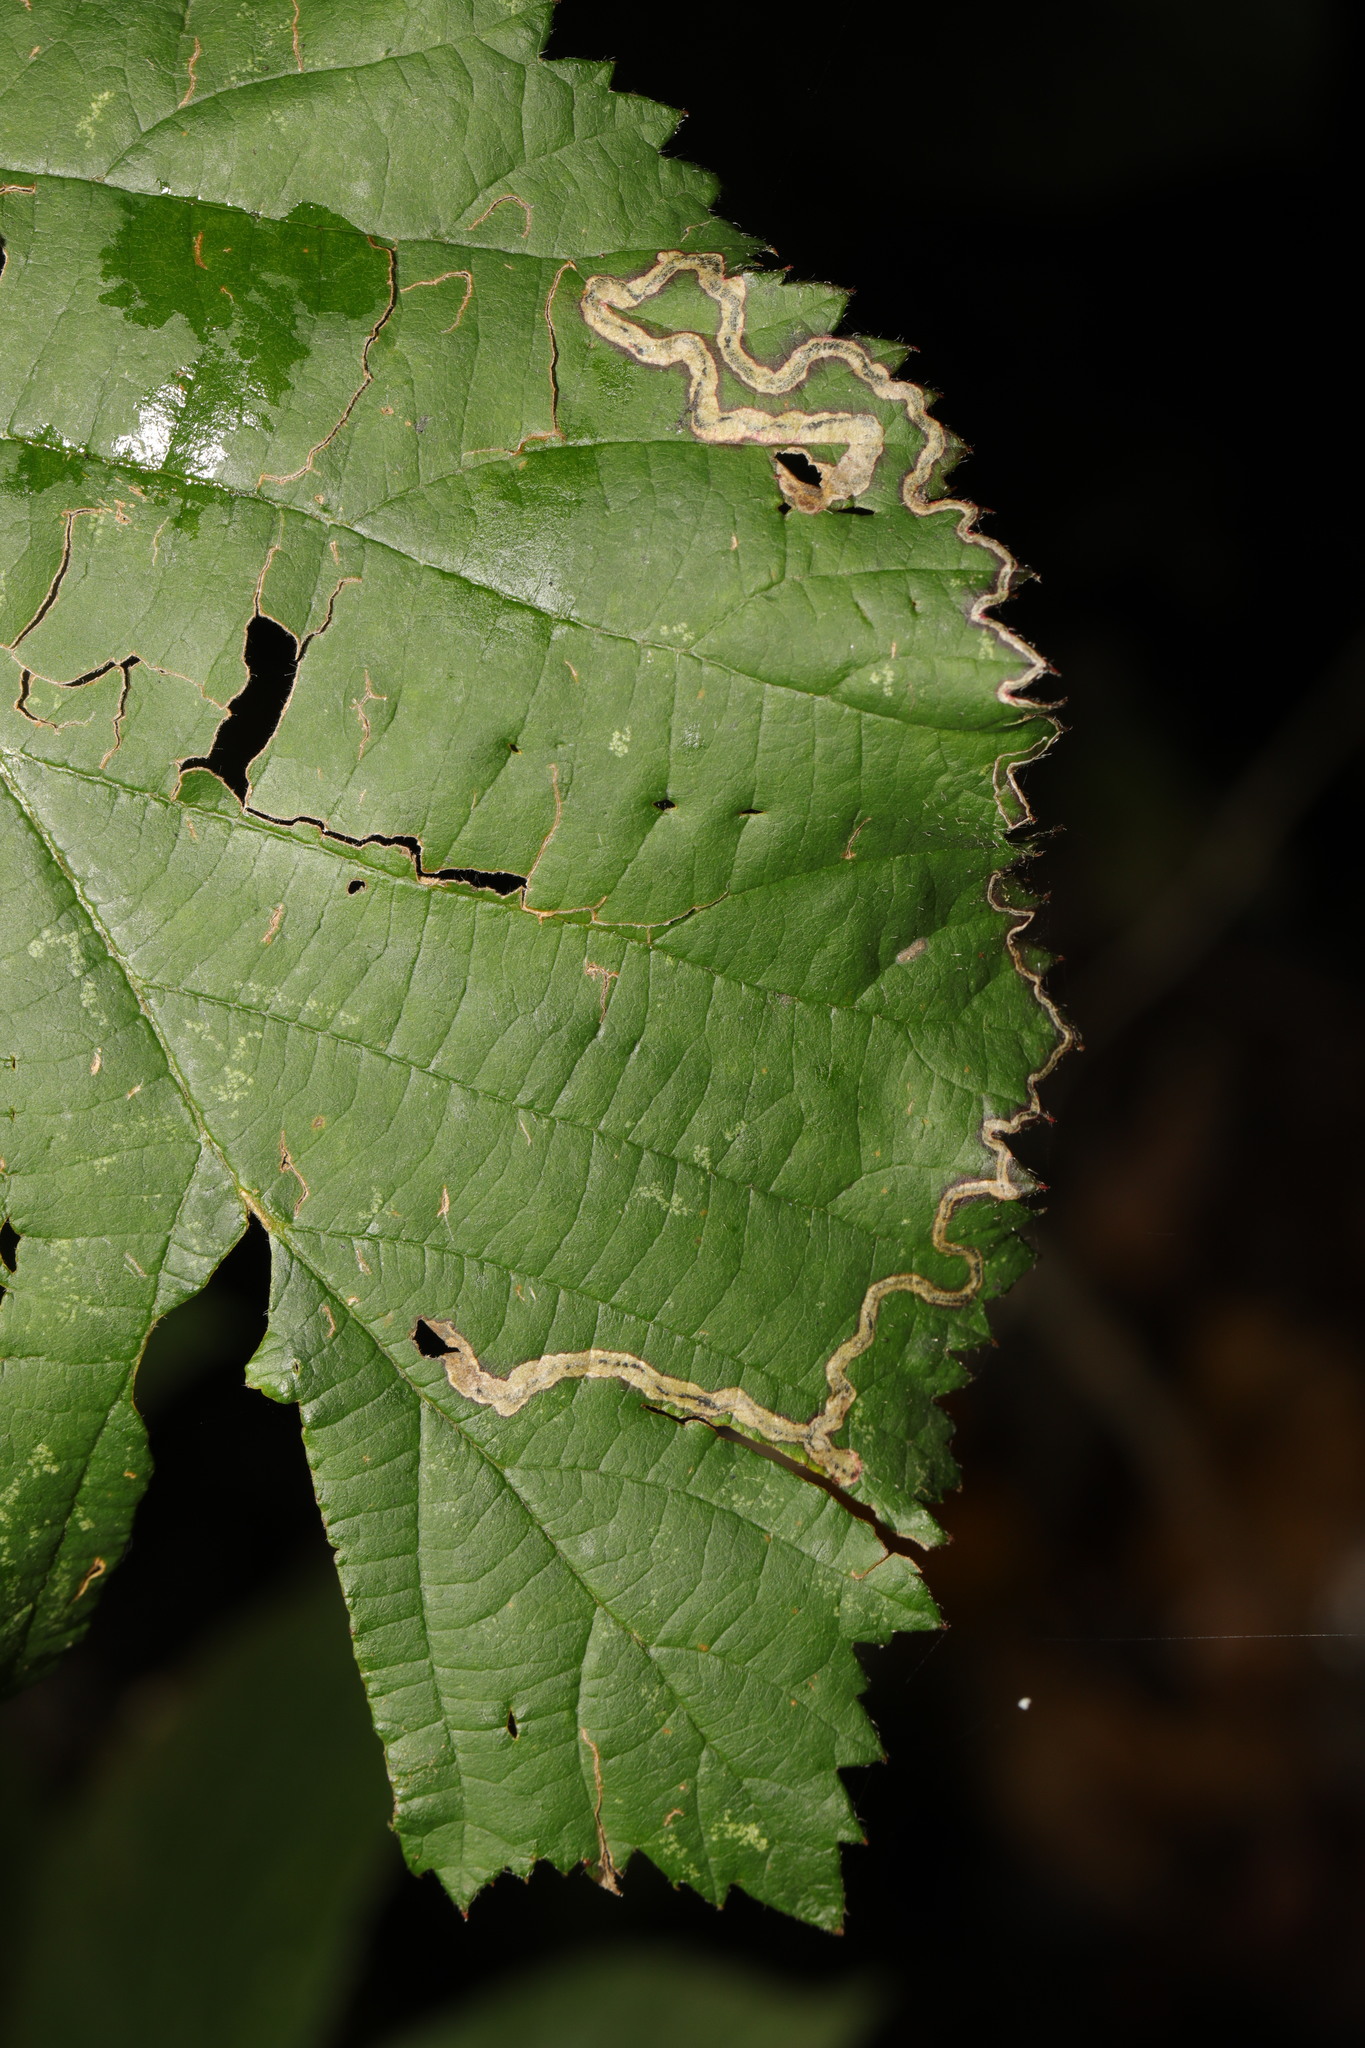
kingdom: Animalia
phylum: Arthropoda
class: Insecta
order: Lepidoptera
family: Nepticulidae
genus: Stigmella
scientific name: Stigmella aurella
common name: Golden pigmy
